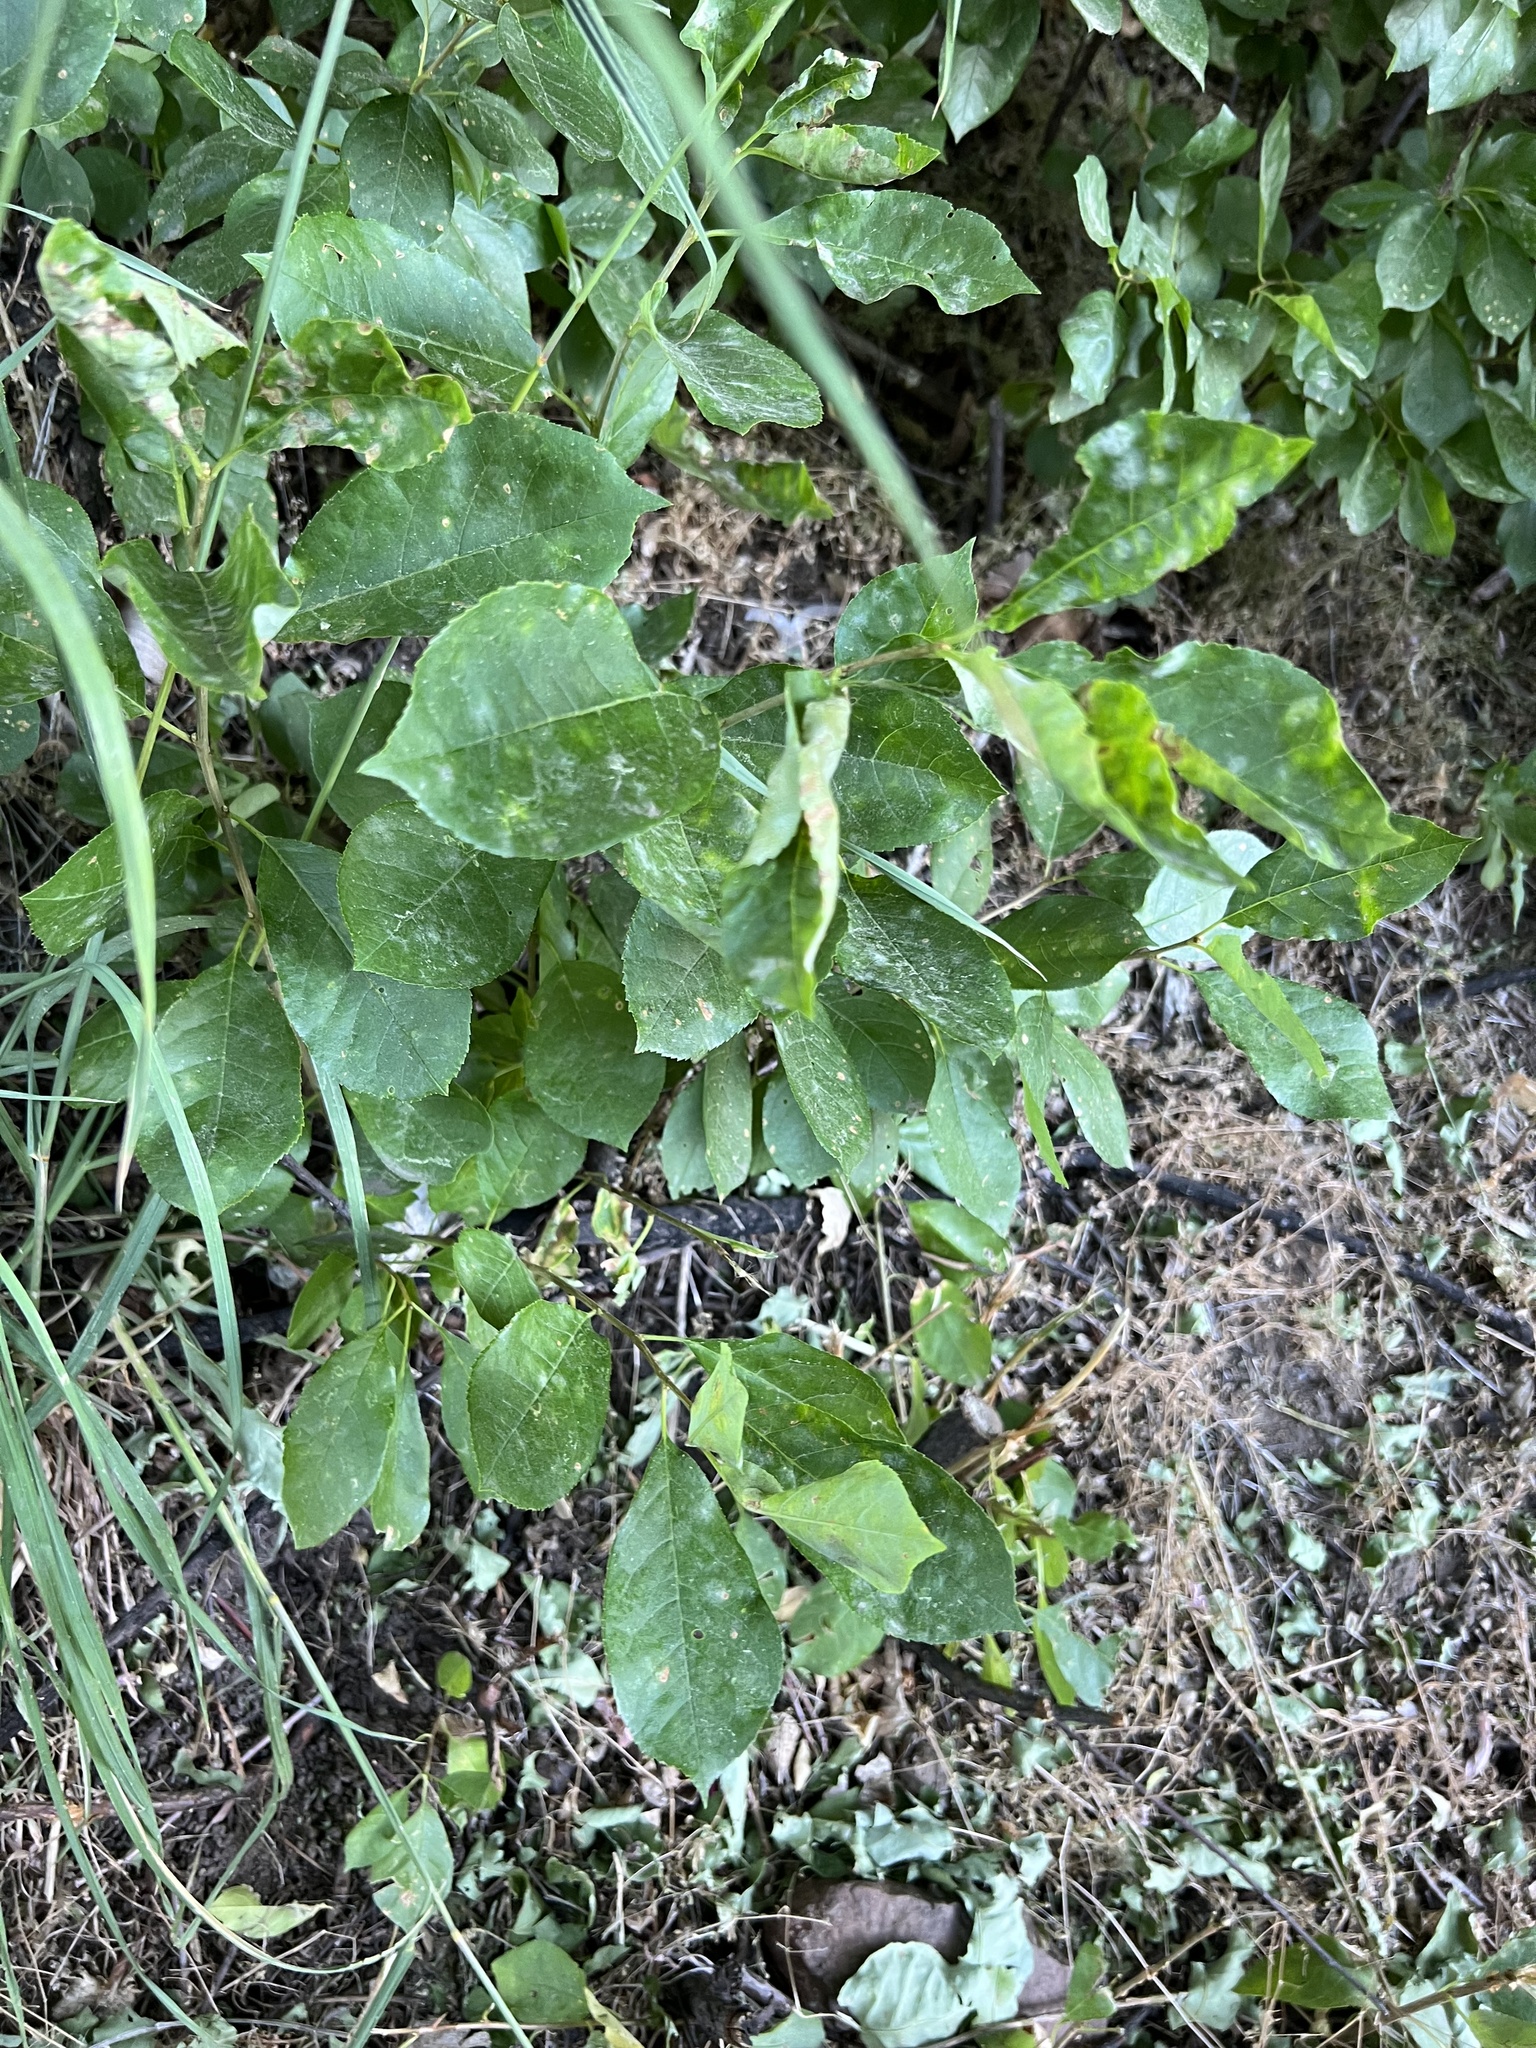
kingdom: Fungi
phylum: Ascomycota
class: Leotiomycetes
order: Helotiales
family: Erysiphaceae
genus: Erysiphe
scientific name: Erysiphe euonymicola
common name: Spindletree mildew
